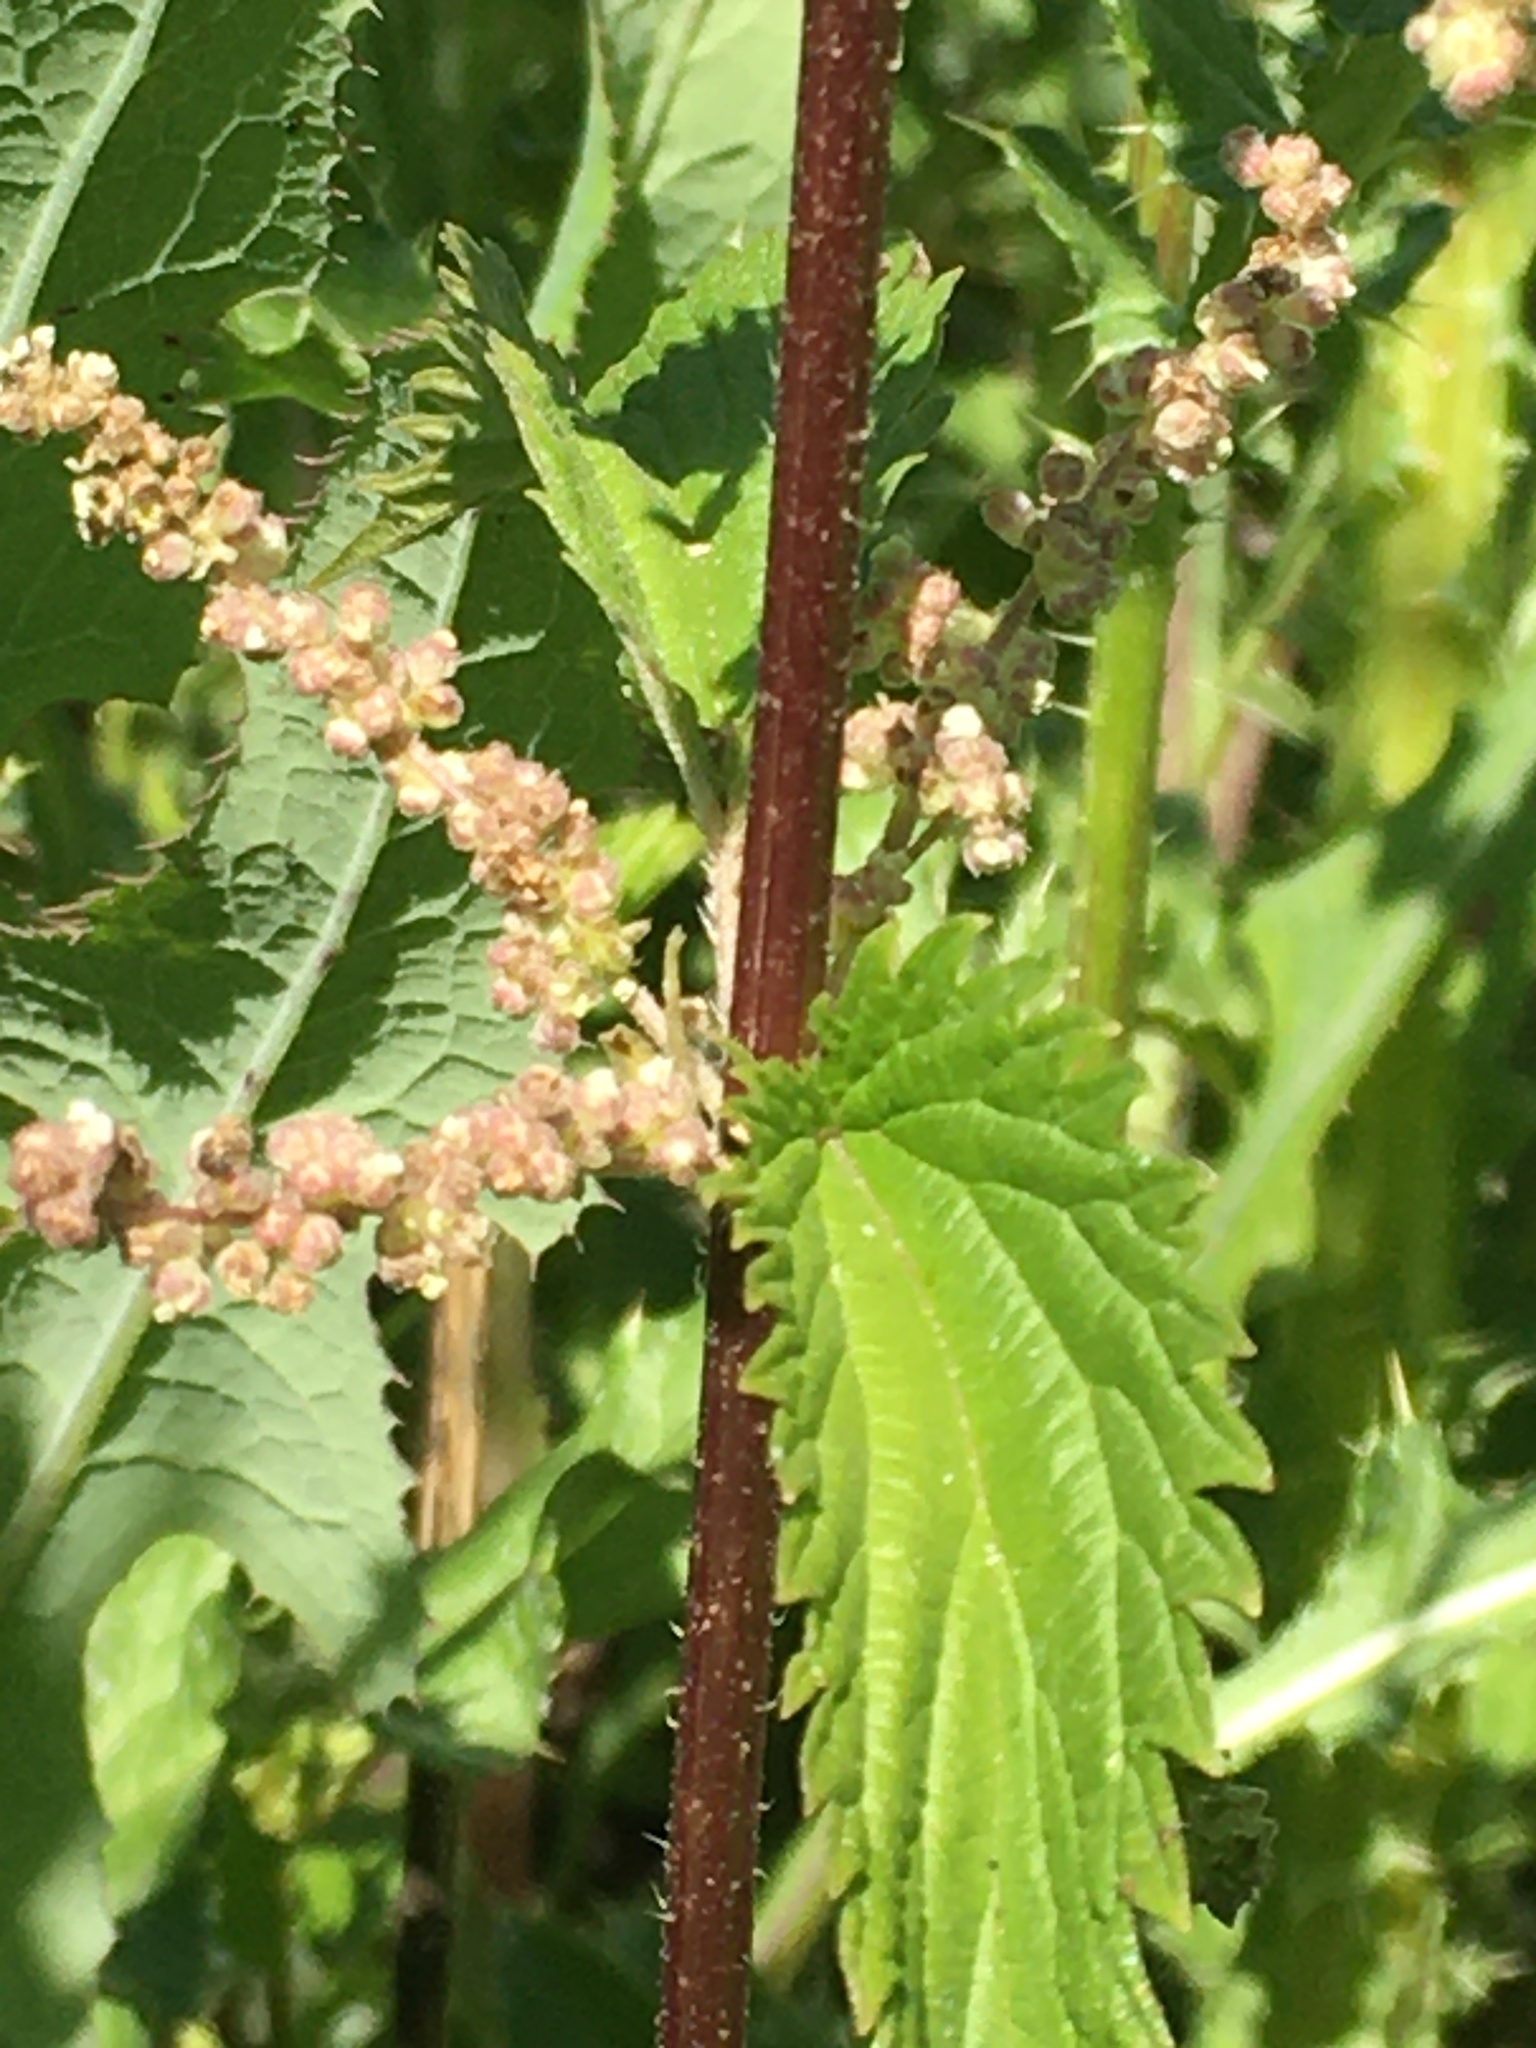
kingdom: Plantae
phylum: Tracheophyta
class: Magnoliopsida
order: Rosales
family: Urticaceae
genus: Urtica
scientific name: Urtica gracilis
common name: Slender stinging nettle
